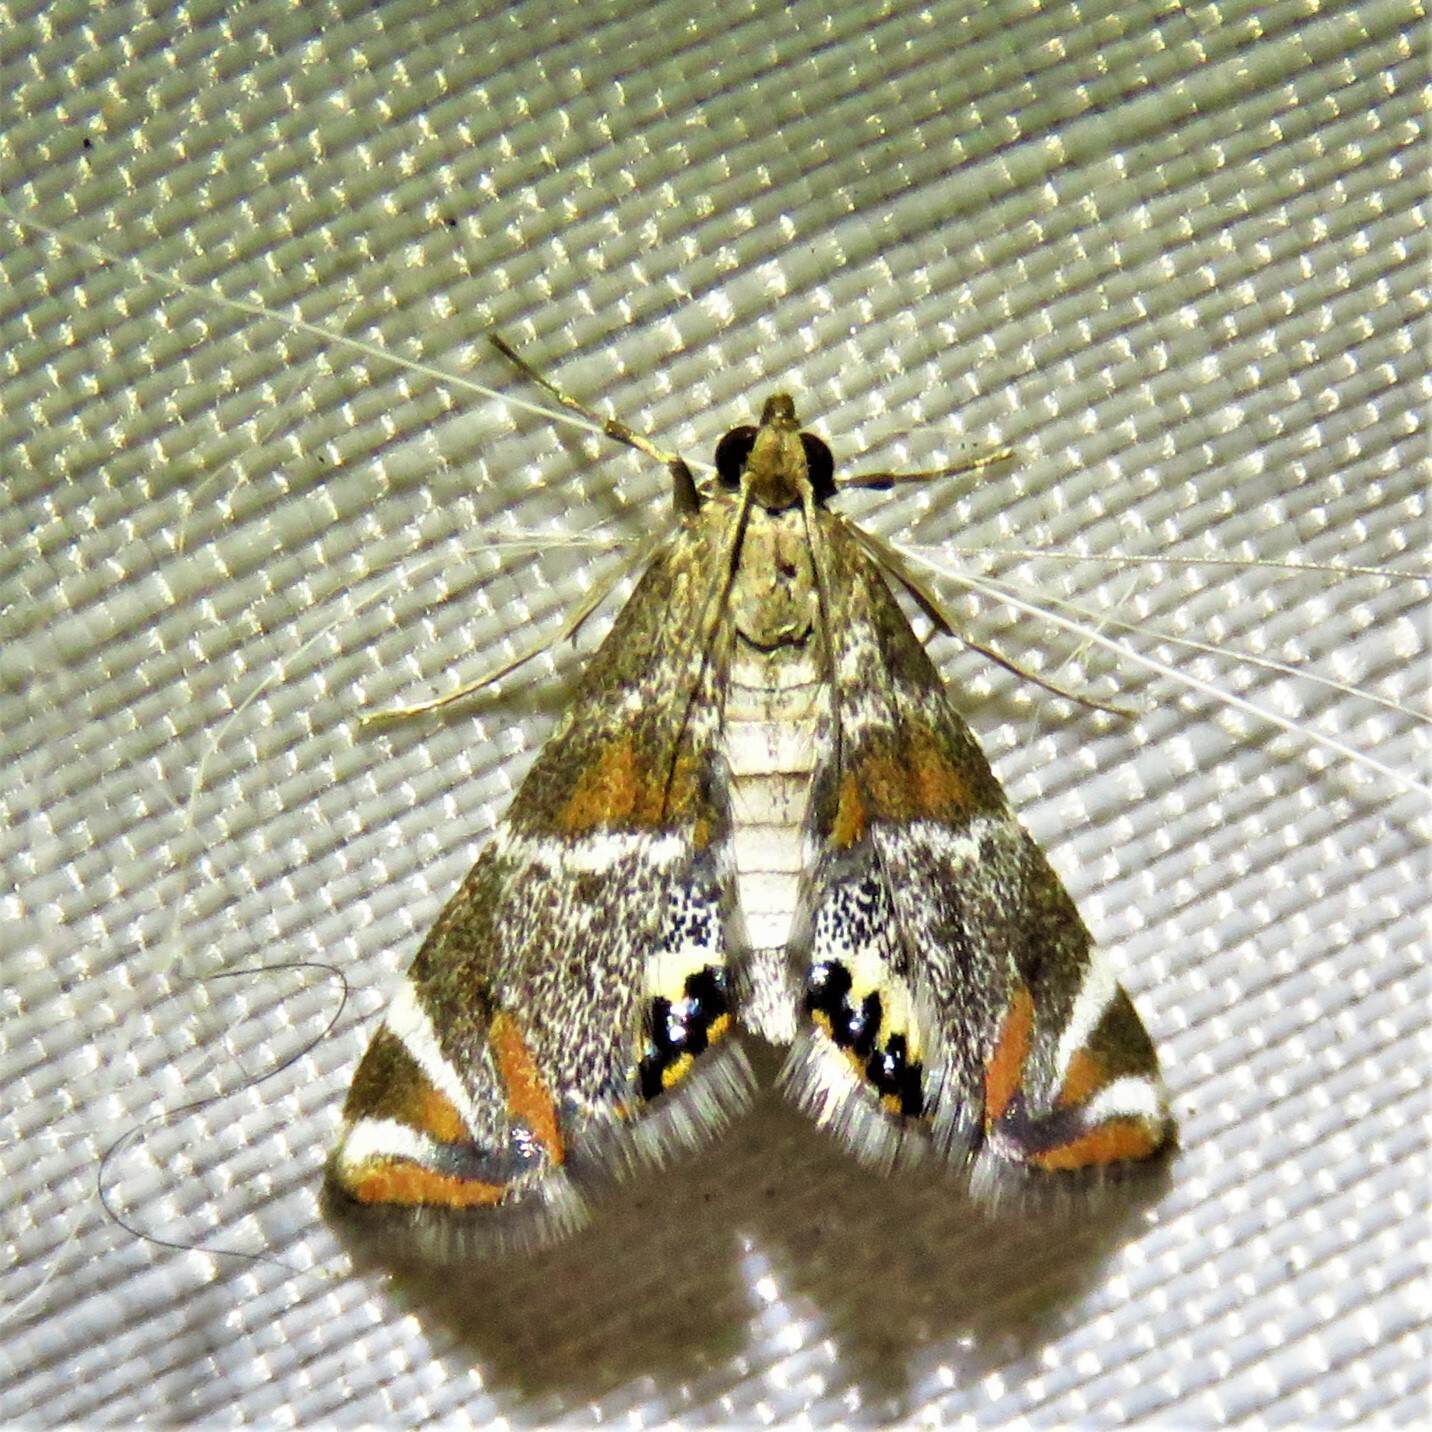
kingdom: Animalia
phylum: Arthropoda
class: Insecta
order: Lepidoptera
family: Crambidae
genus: Petrophila
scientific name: Petrophila jaliscalis
